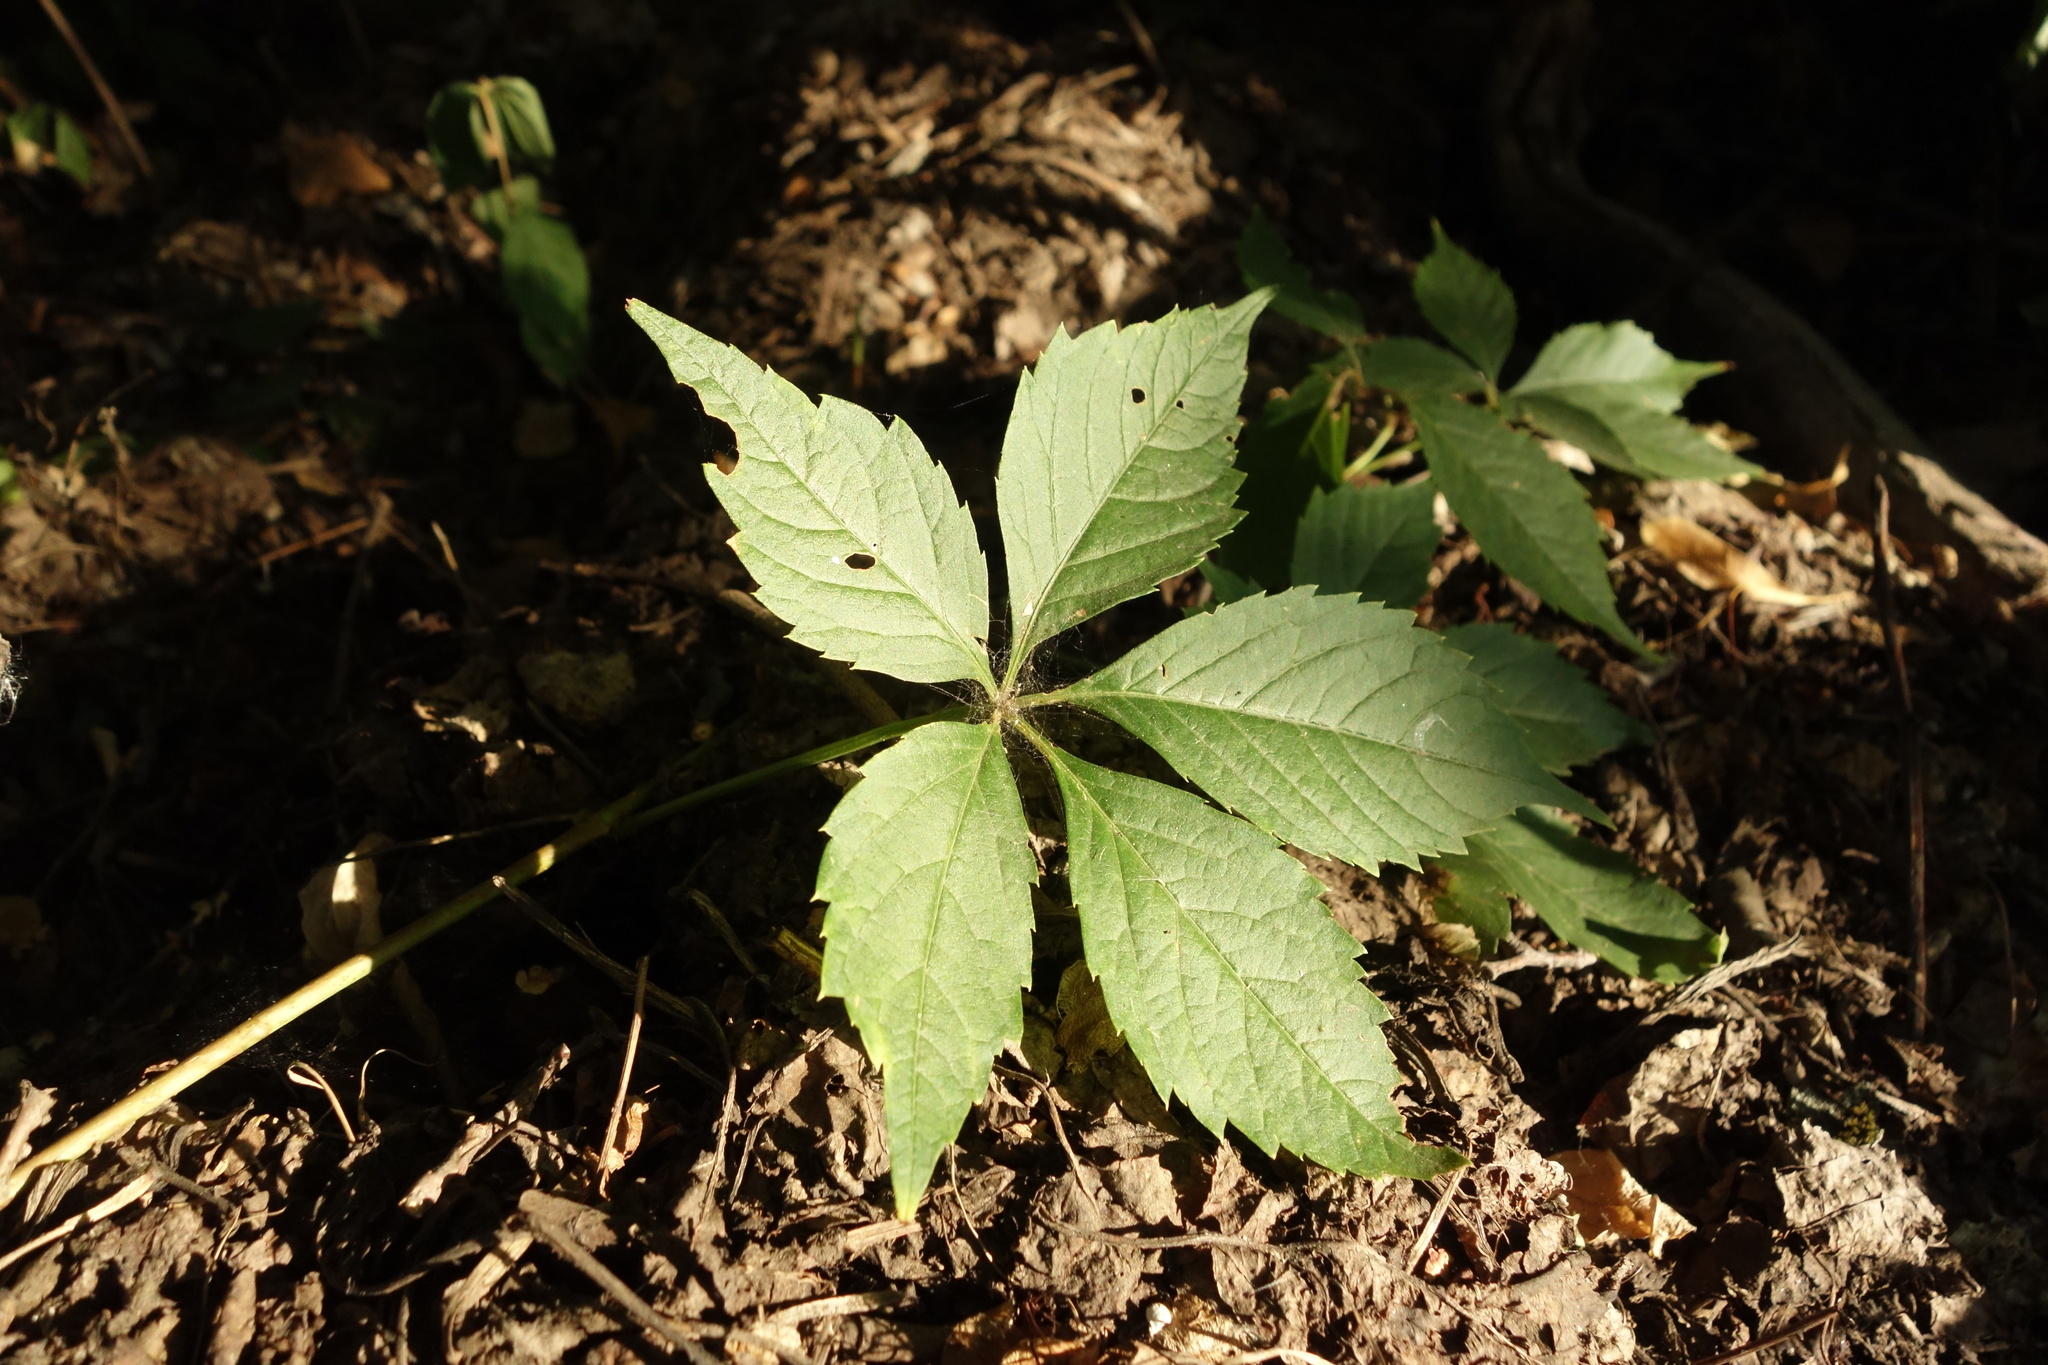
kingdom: Plantae
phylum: Tracheophyta
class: Magnoliopsida
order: Vitales
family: Vitaceae
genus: Parthenocissus
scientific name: Parthenocissus inserta
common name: False virginia-creeper
